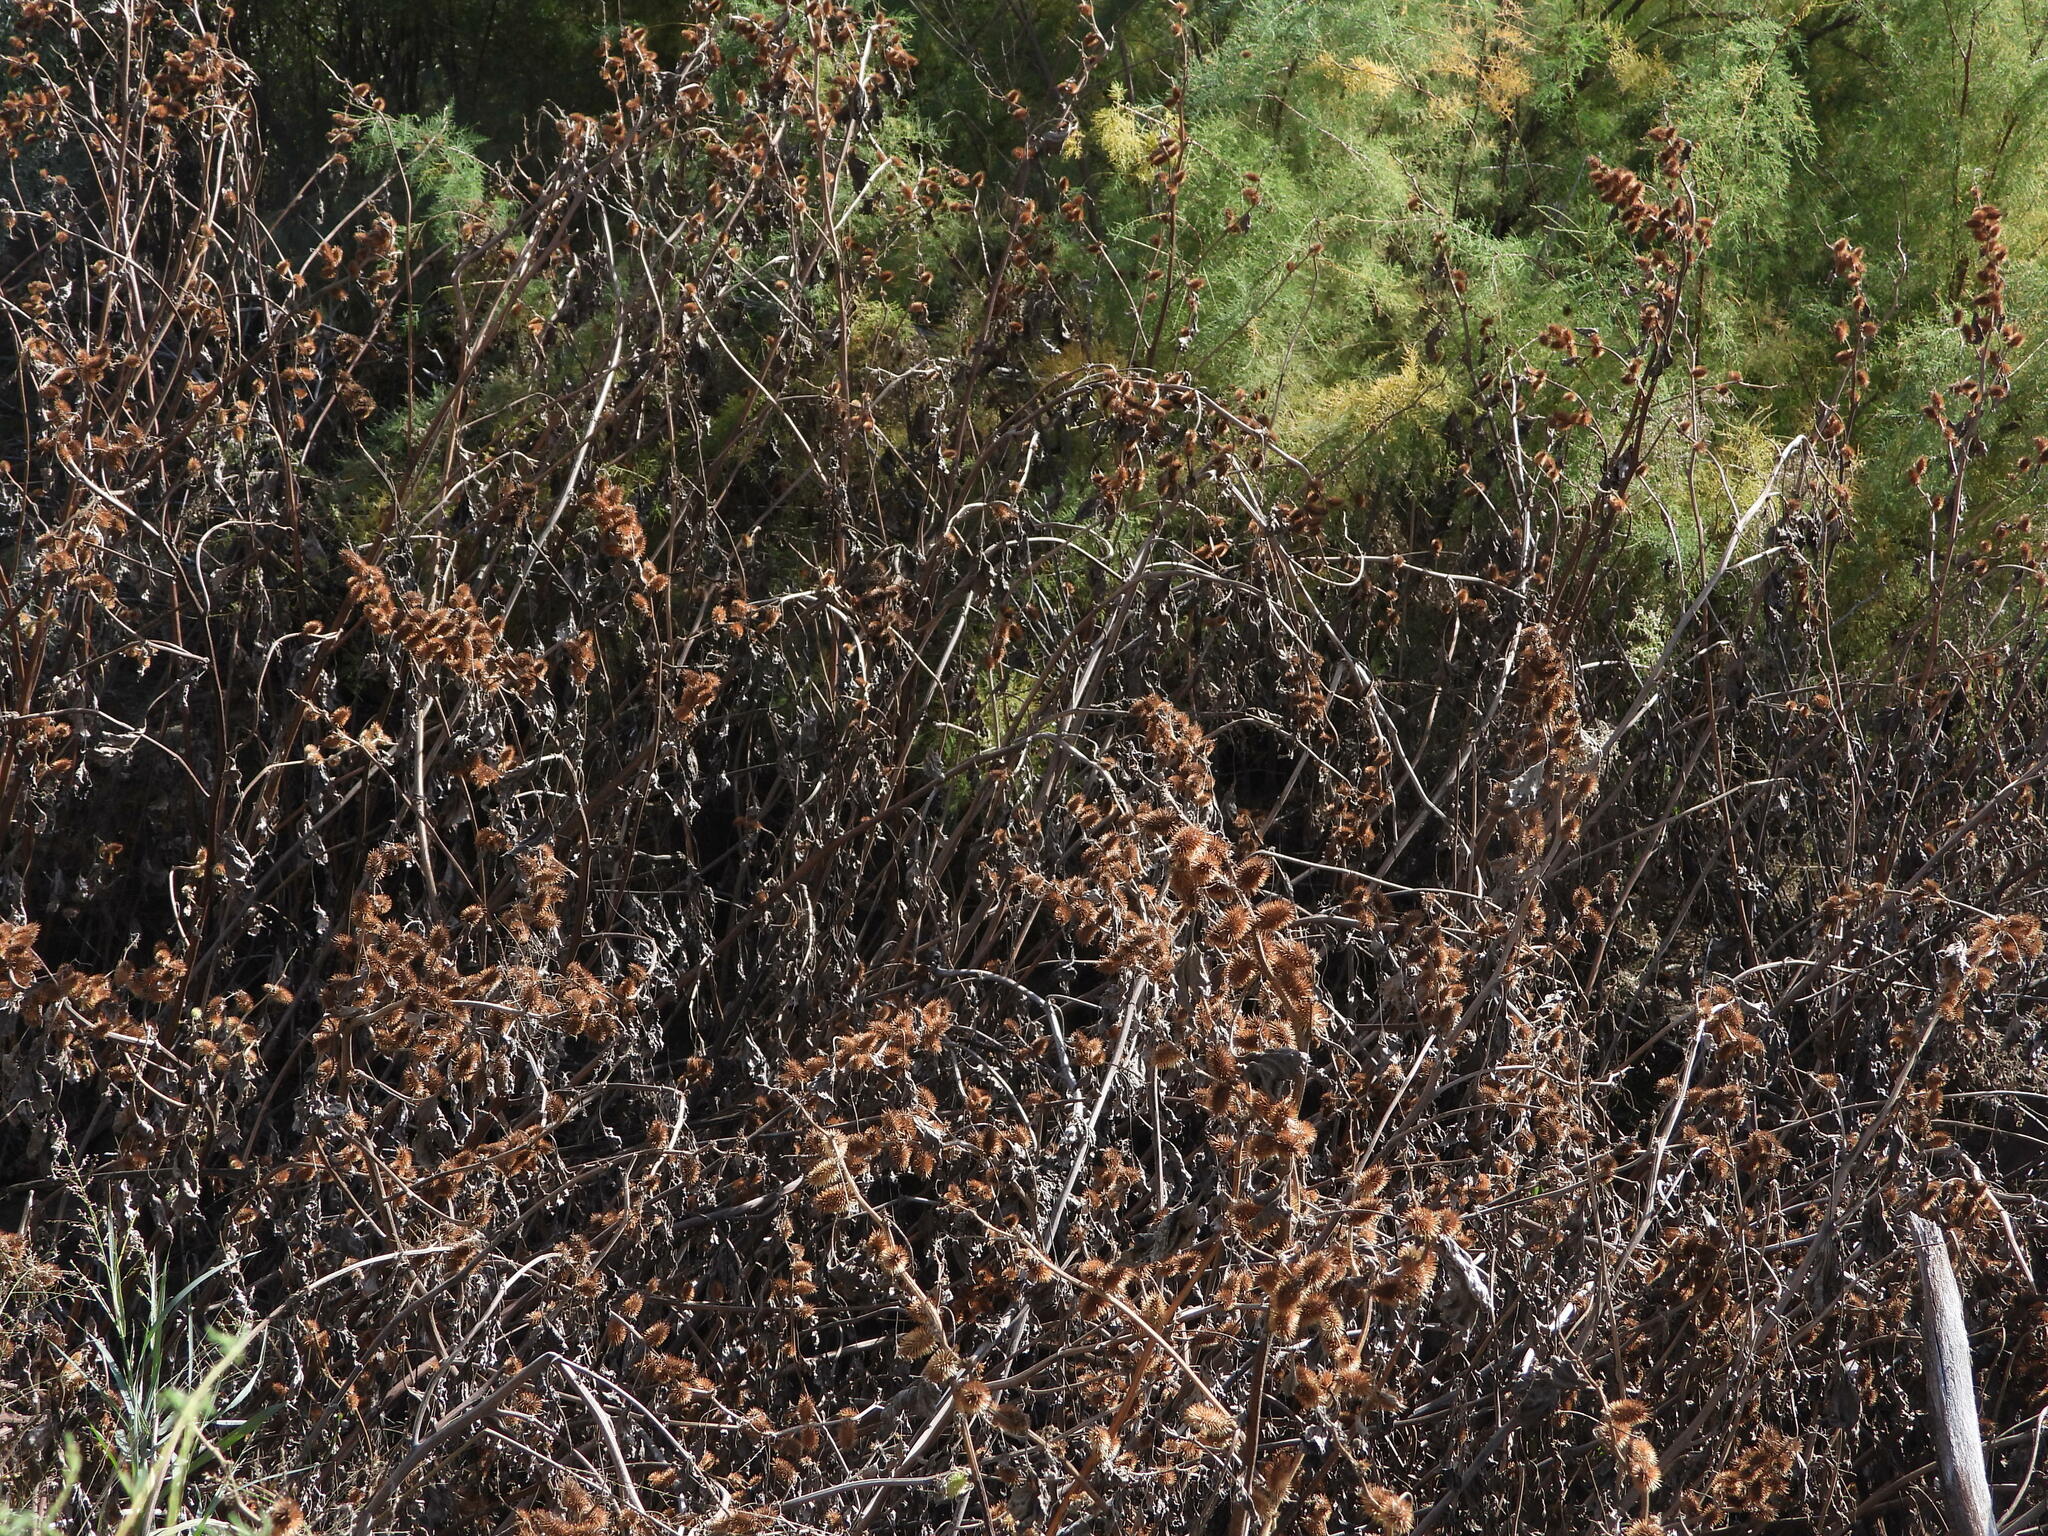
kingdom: Plantae
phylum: Tracheophyta
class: Magnoliopsida
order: Asterales
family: Asteraceae
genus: Xanthium
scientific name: Xanthium strumarium
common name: Rough cocklebur
